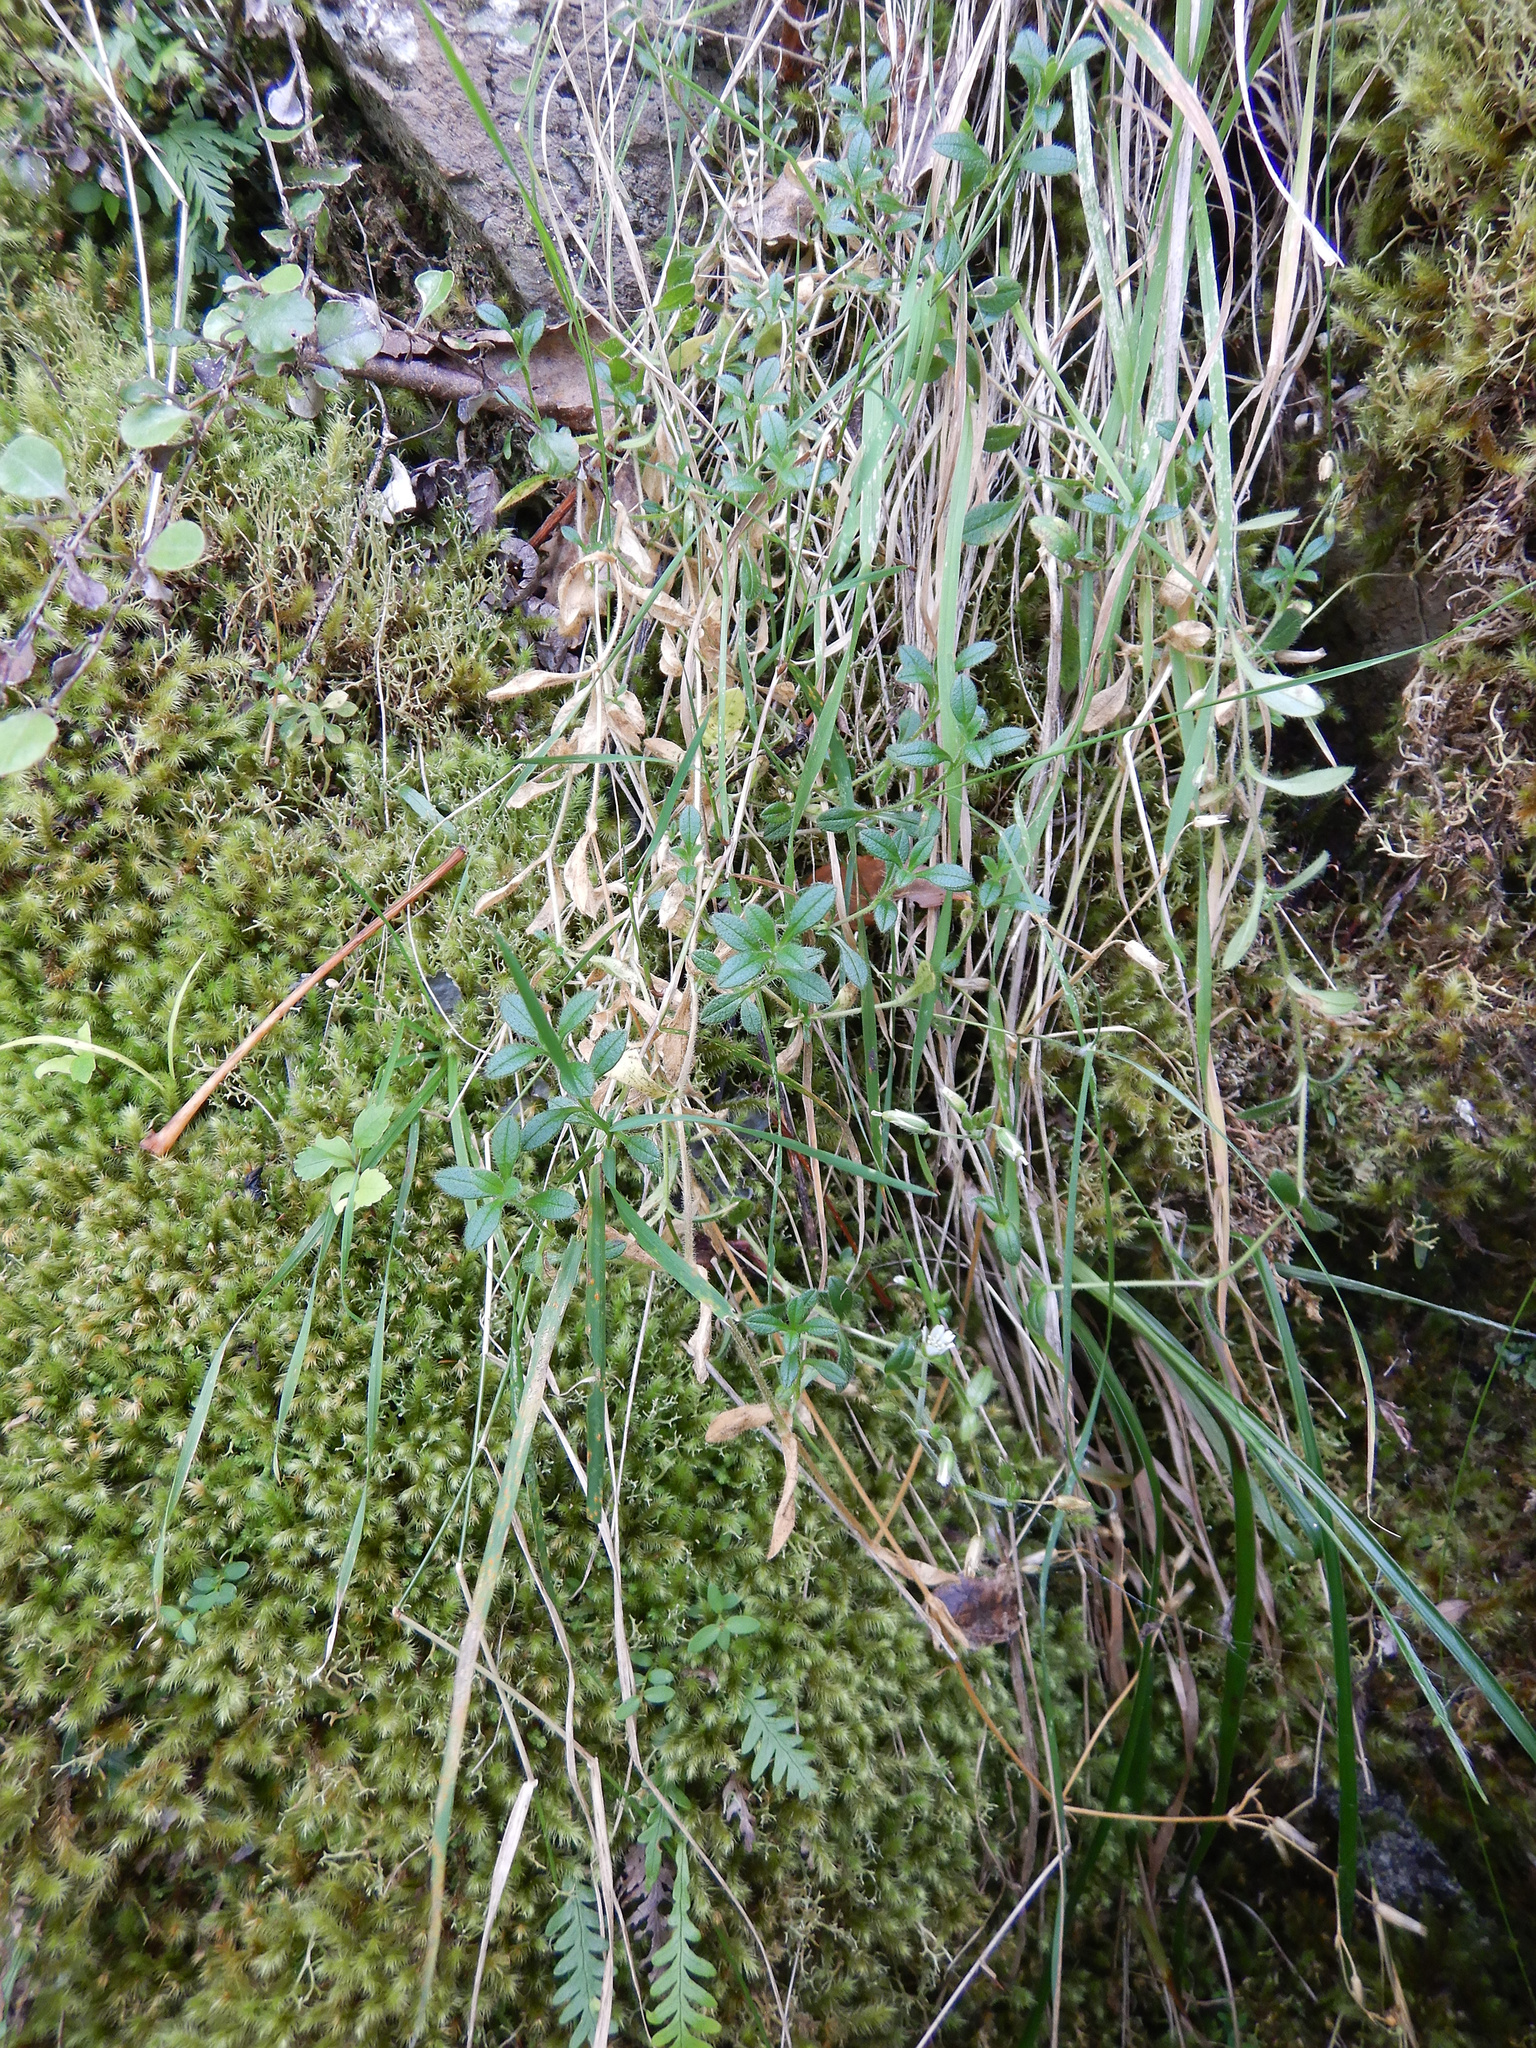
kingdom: Plantae
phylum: Tracheophyta
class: Magnoliopsida
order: Caryophyllales
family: Caryophyllaceae
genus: Cerastium
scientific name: Cerastium fontanum
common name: Common mouse-ear
